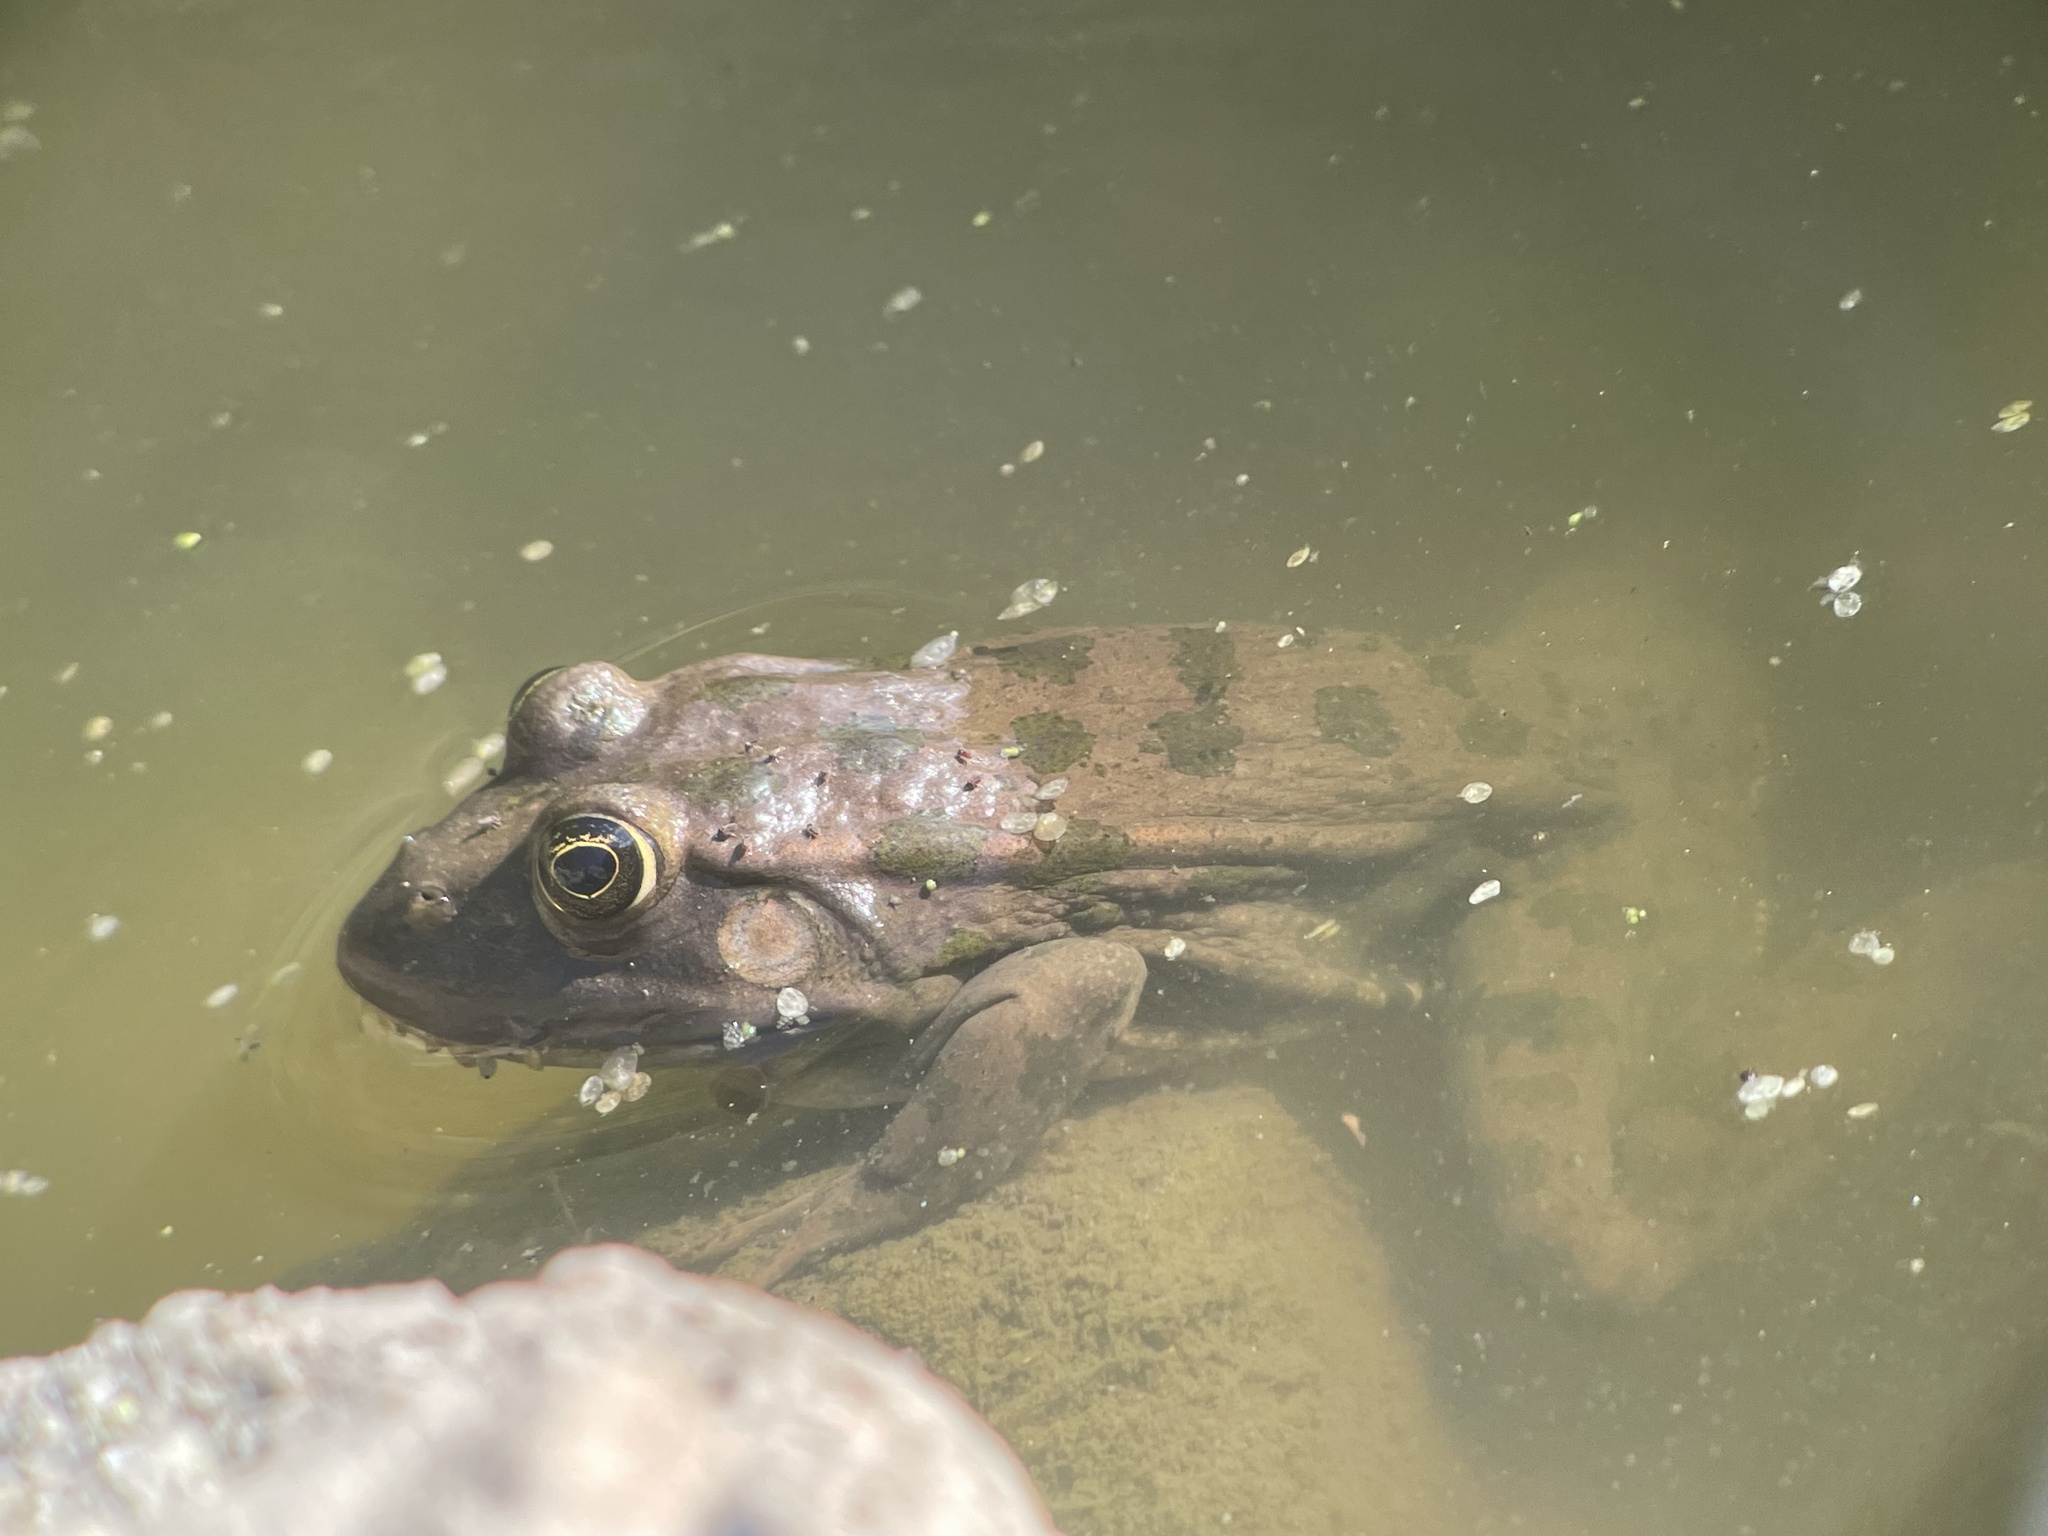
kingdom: Animalia
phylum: Chordata
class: Amphibia
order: Anura
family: Ranidae
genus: Pelophylax
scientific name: Pelophylax ridibundus
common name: Marsh frog
